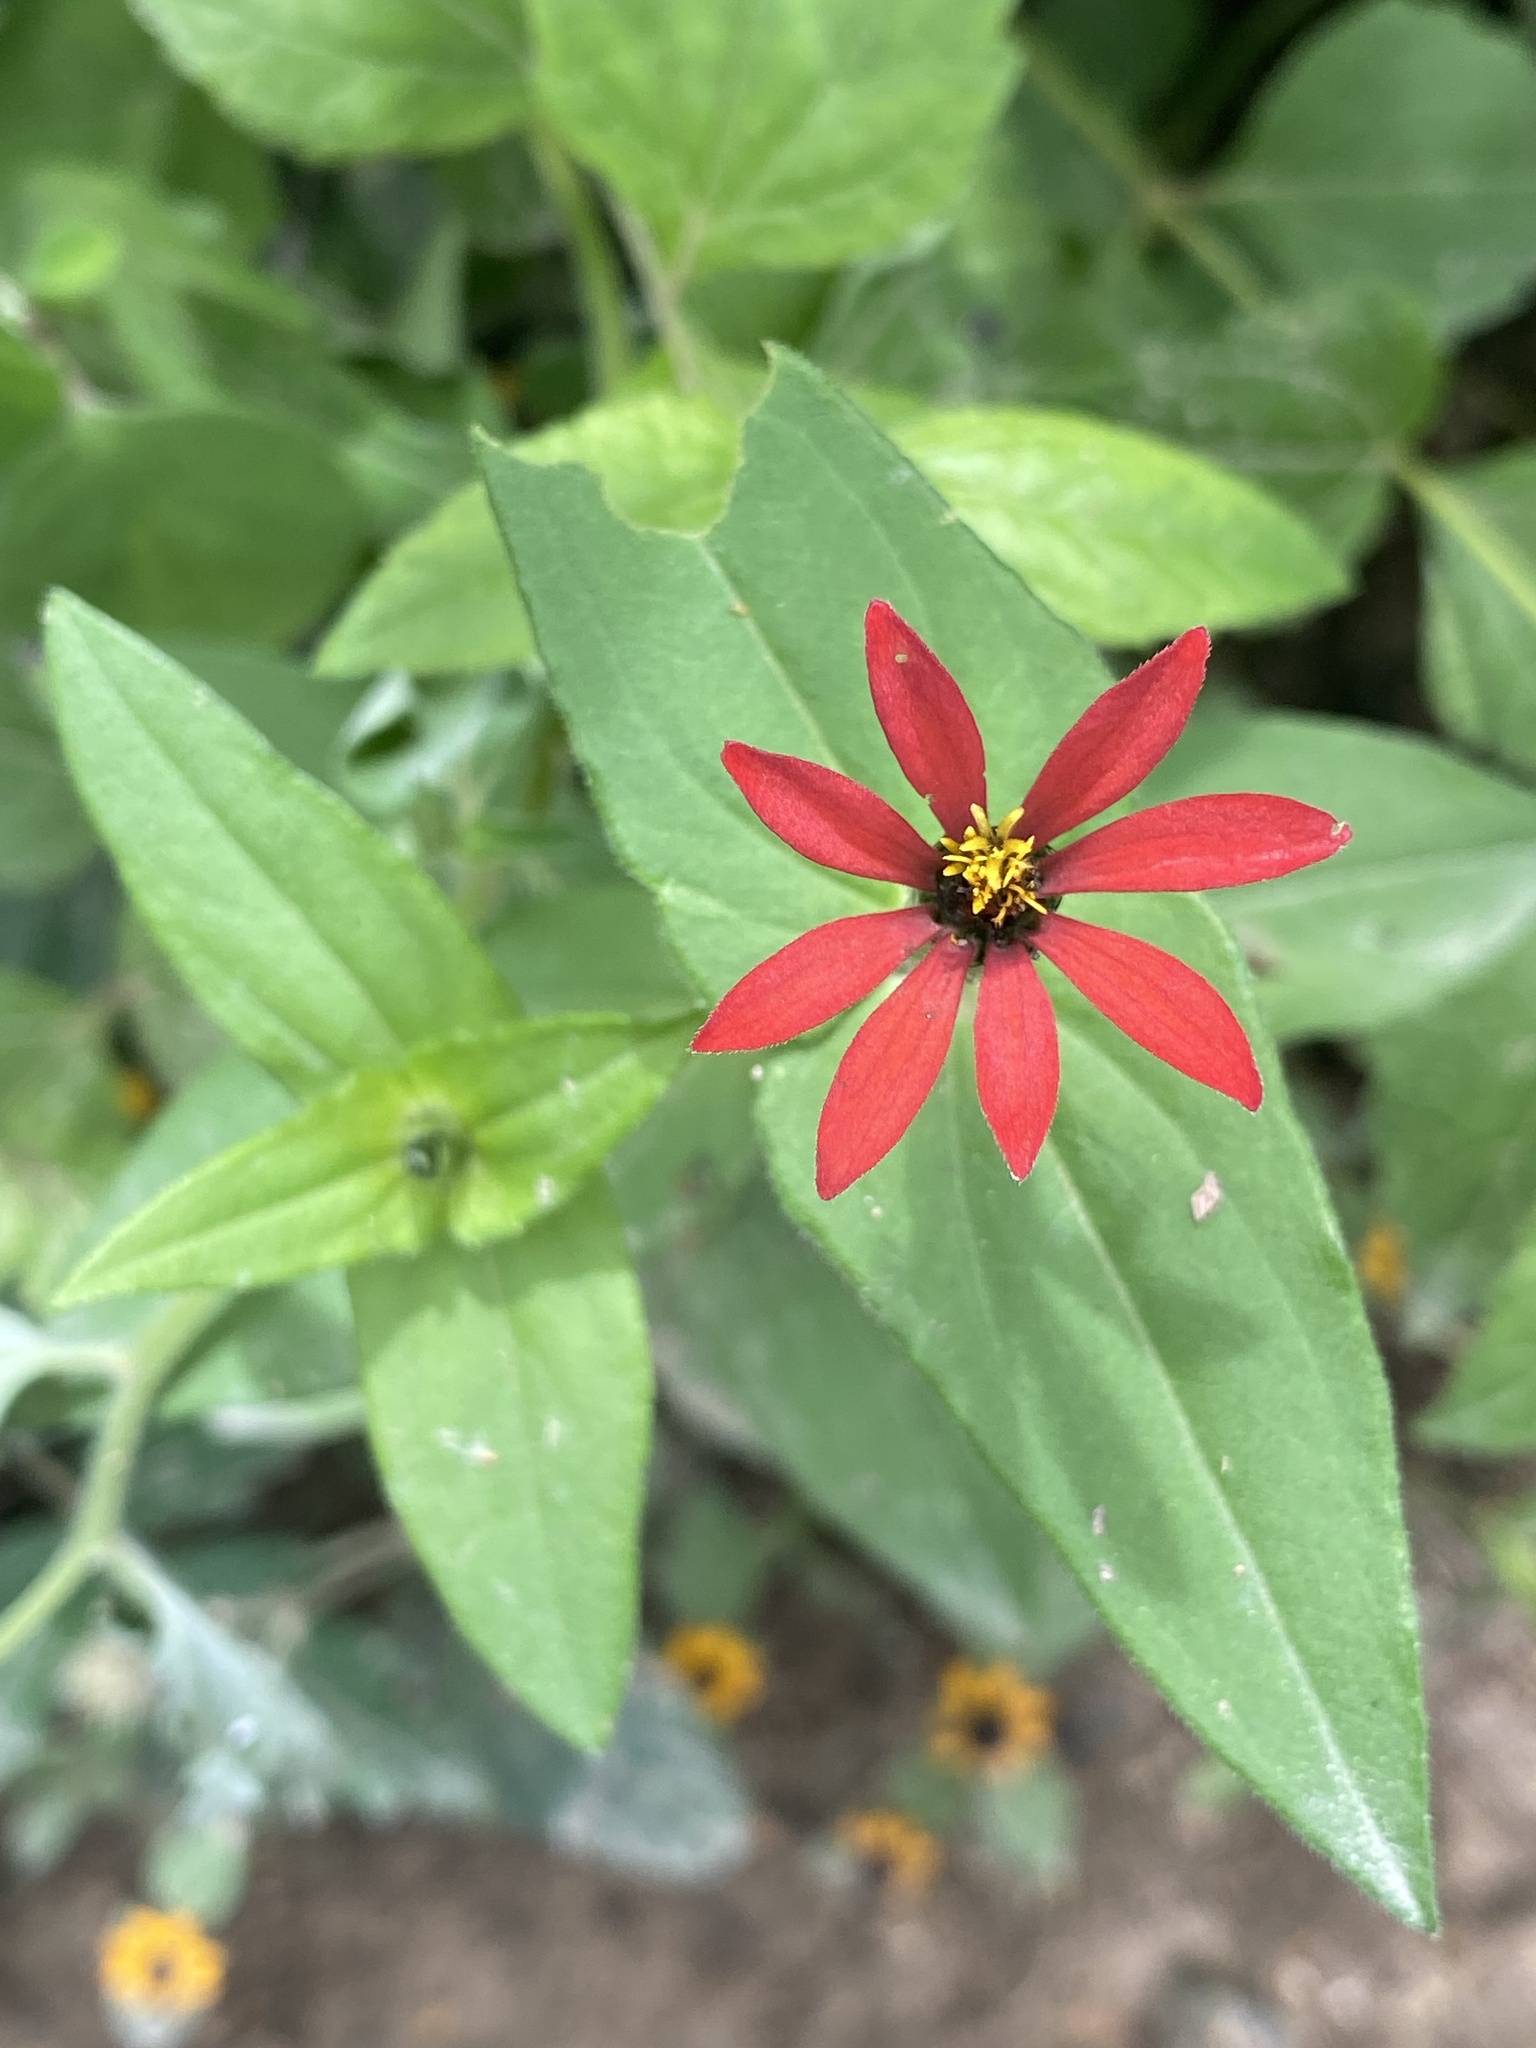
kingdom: Plantae
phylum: Tracheophyta
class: Magnoliopsida
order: Asterales
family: Asteraceae
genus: Zinnia
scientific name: Zinnia peruviana
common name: Peruvian zinnia
